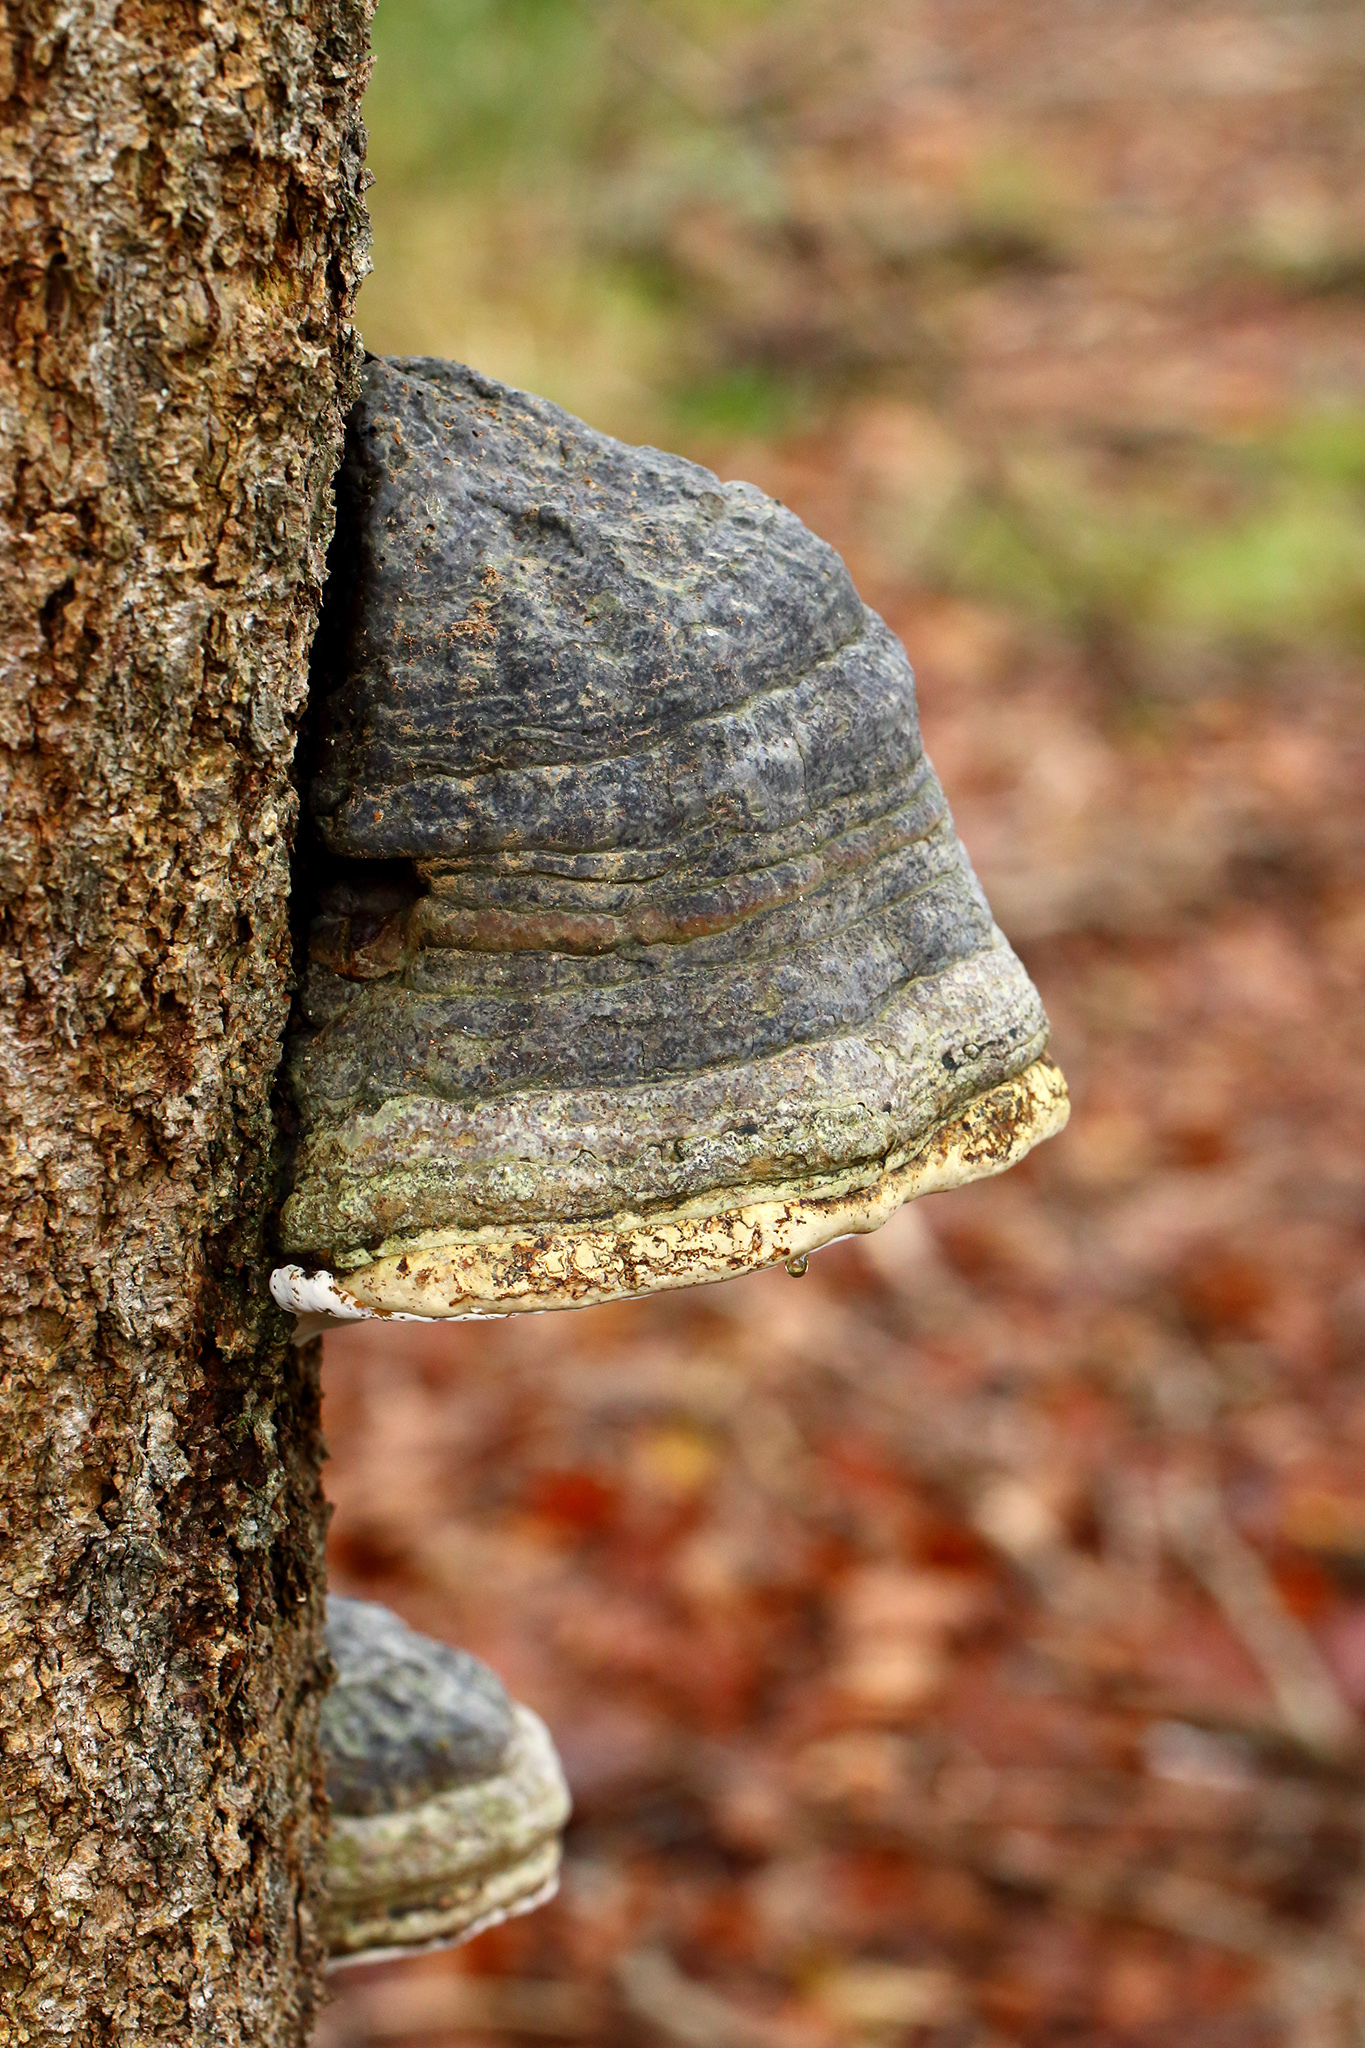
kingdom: Fungi
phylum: Basidiomycota
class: Agaricomycetes
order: Polyporales
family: Polyporaceae
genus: Fomes
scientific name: Fomes fomentarius
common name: Hoof fungus
